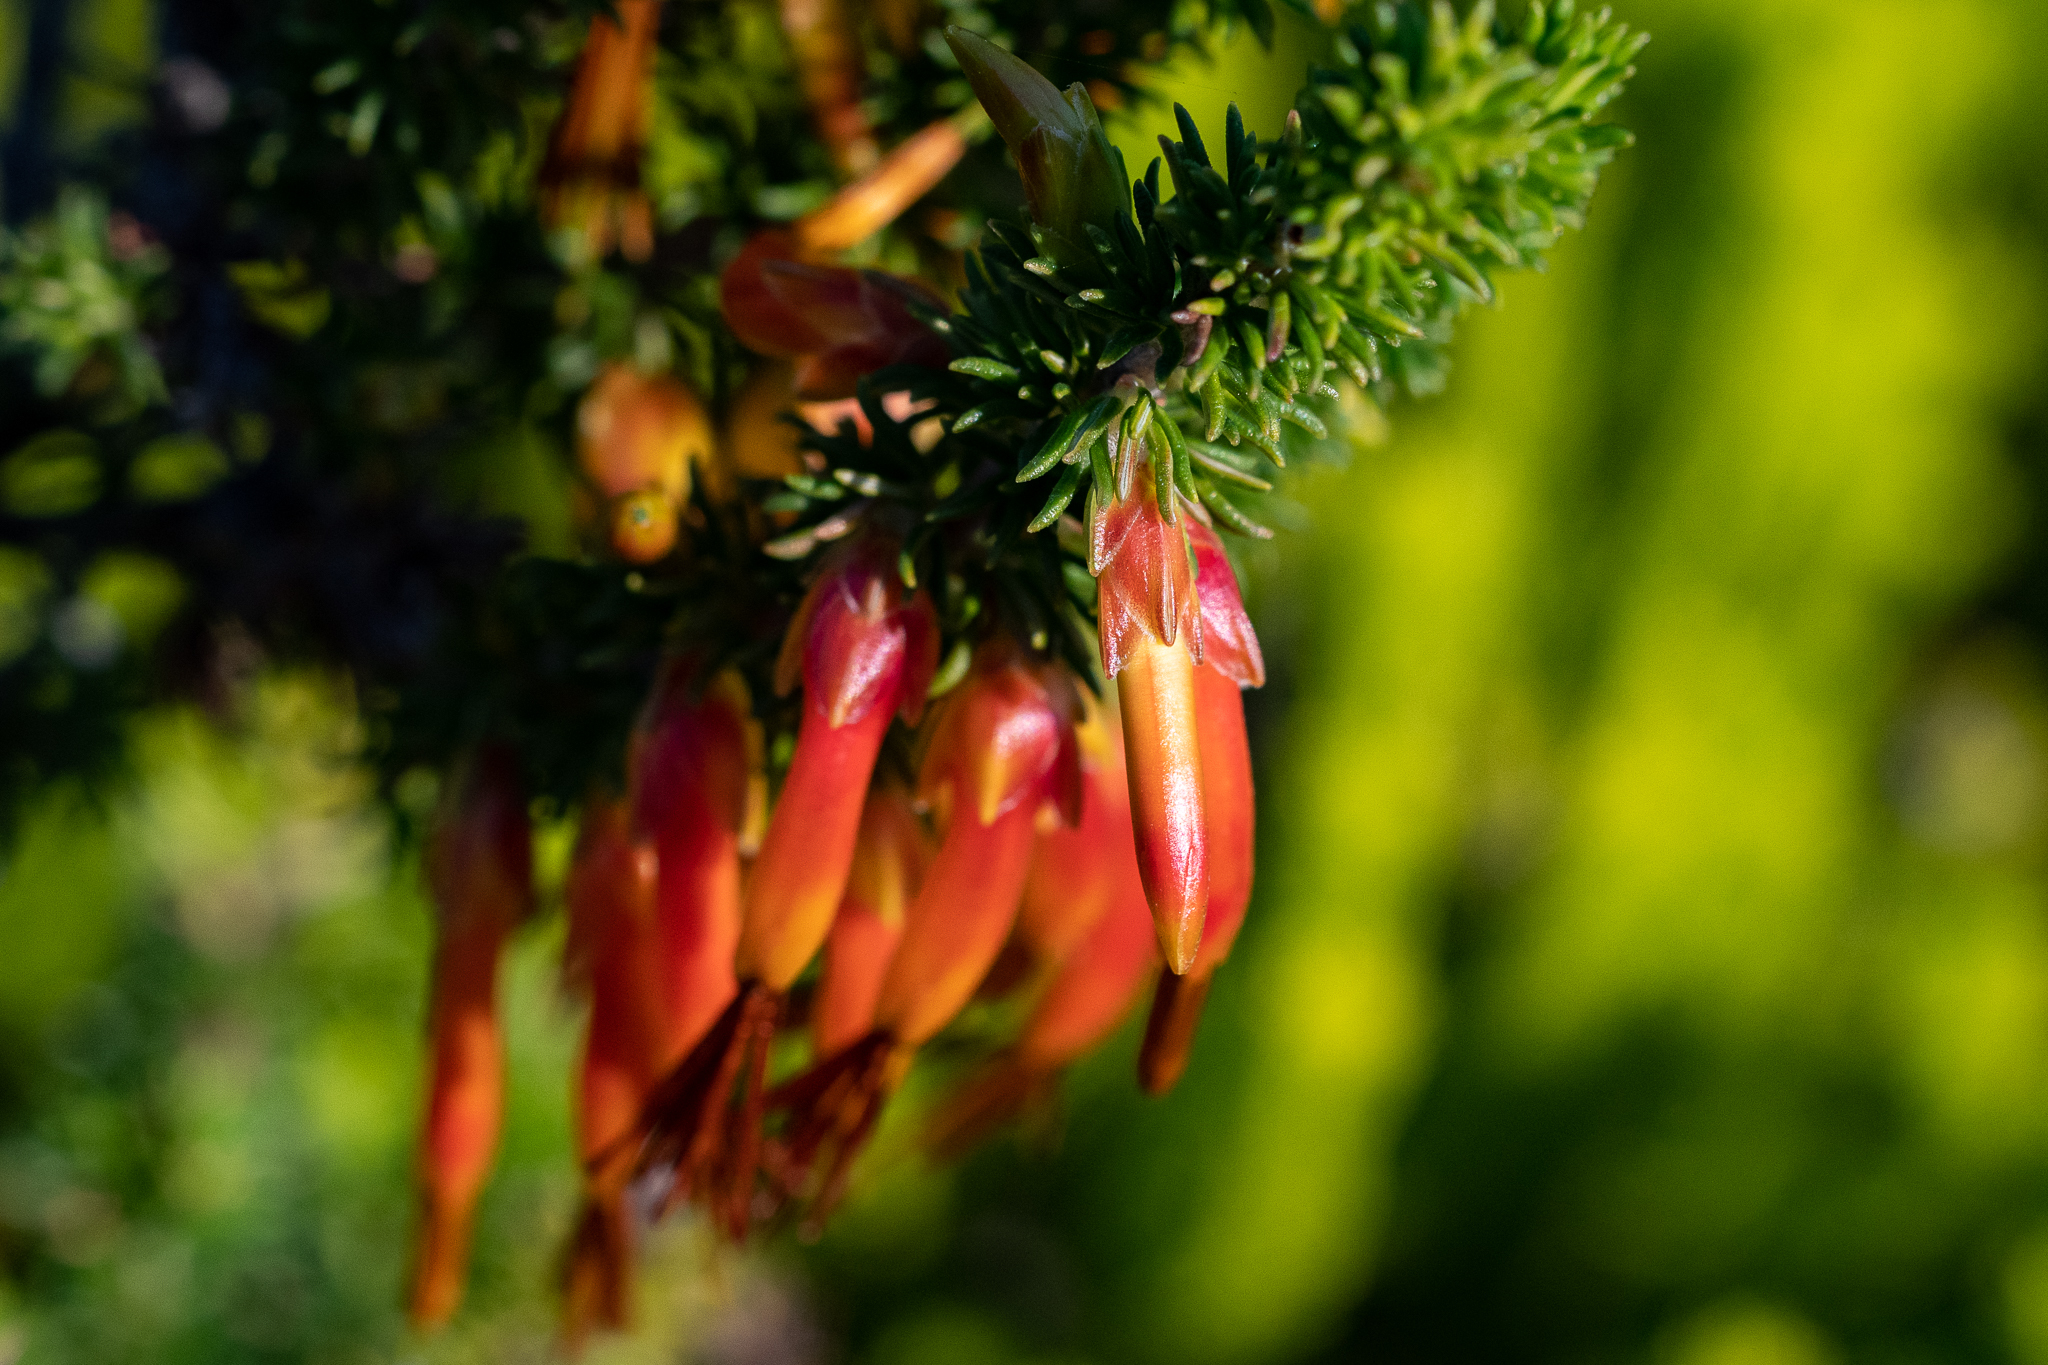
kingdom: Plantae
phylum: Tracheophyta
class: Magnoliopsida
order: Ericales
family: Ericaceae
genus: Erica
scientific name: Erica coccinea
